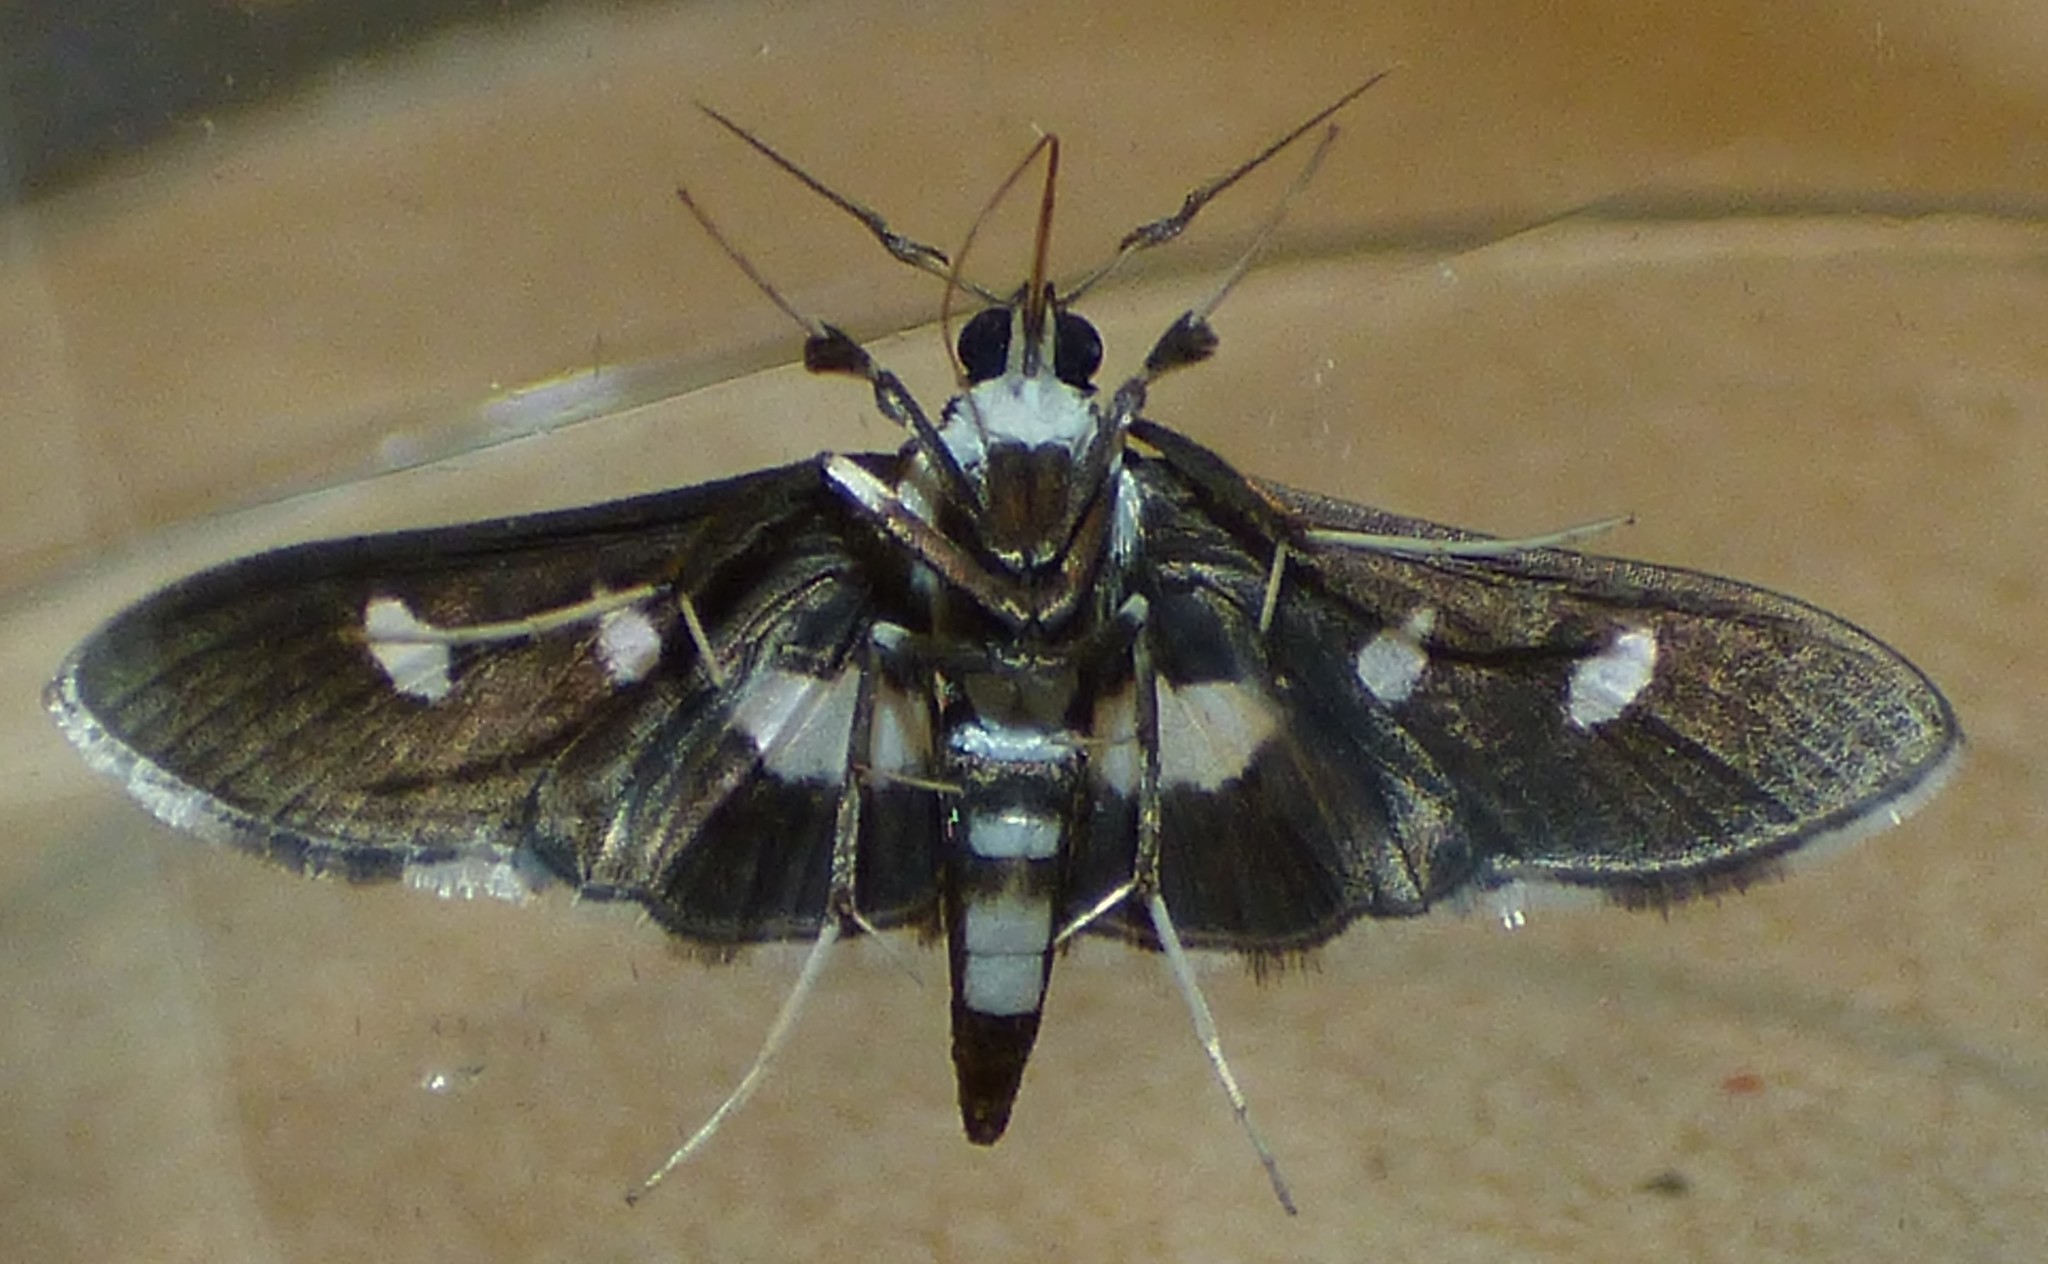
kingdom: Animalia
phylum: Arthropoda
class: Insecta
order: Lepidoptera
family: Crambidae
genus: Desmia
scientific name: Desmia funeralis
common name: Grape leaf folder moth
